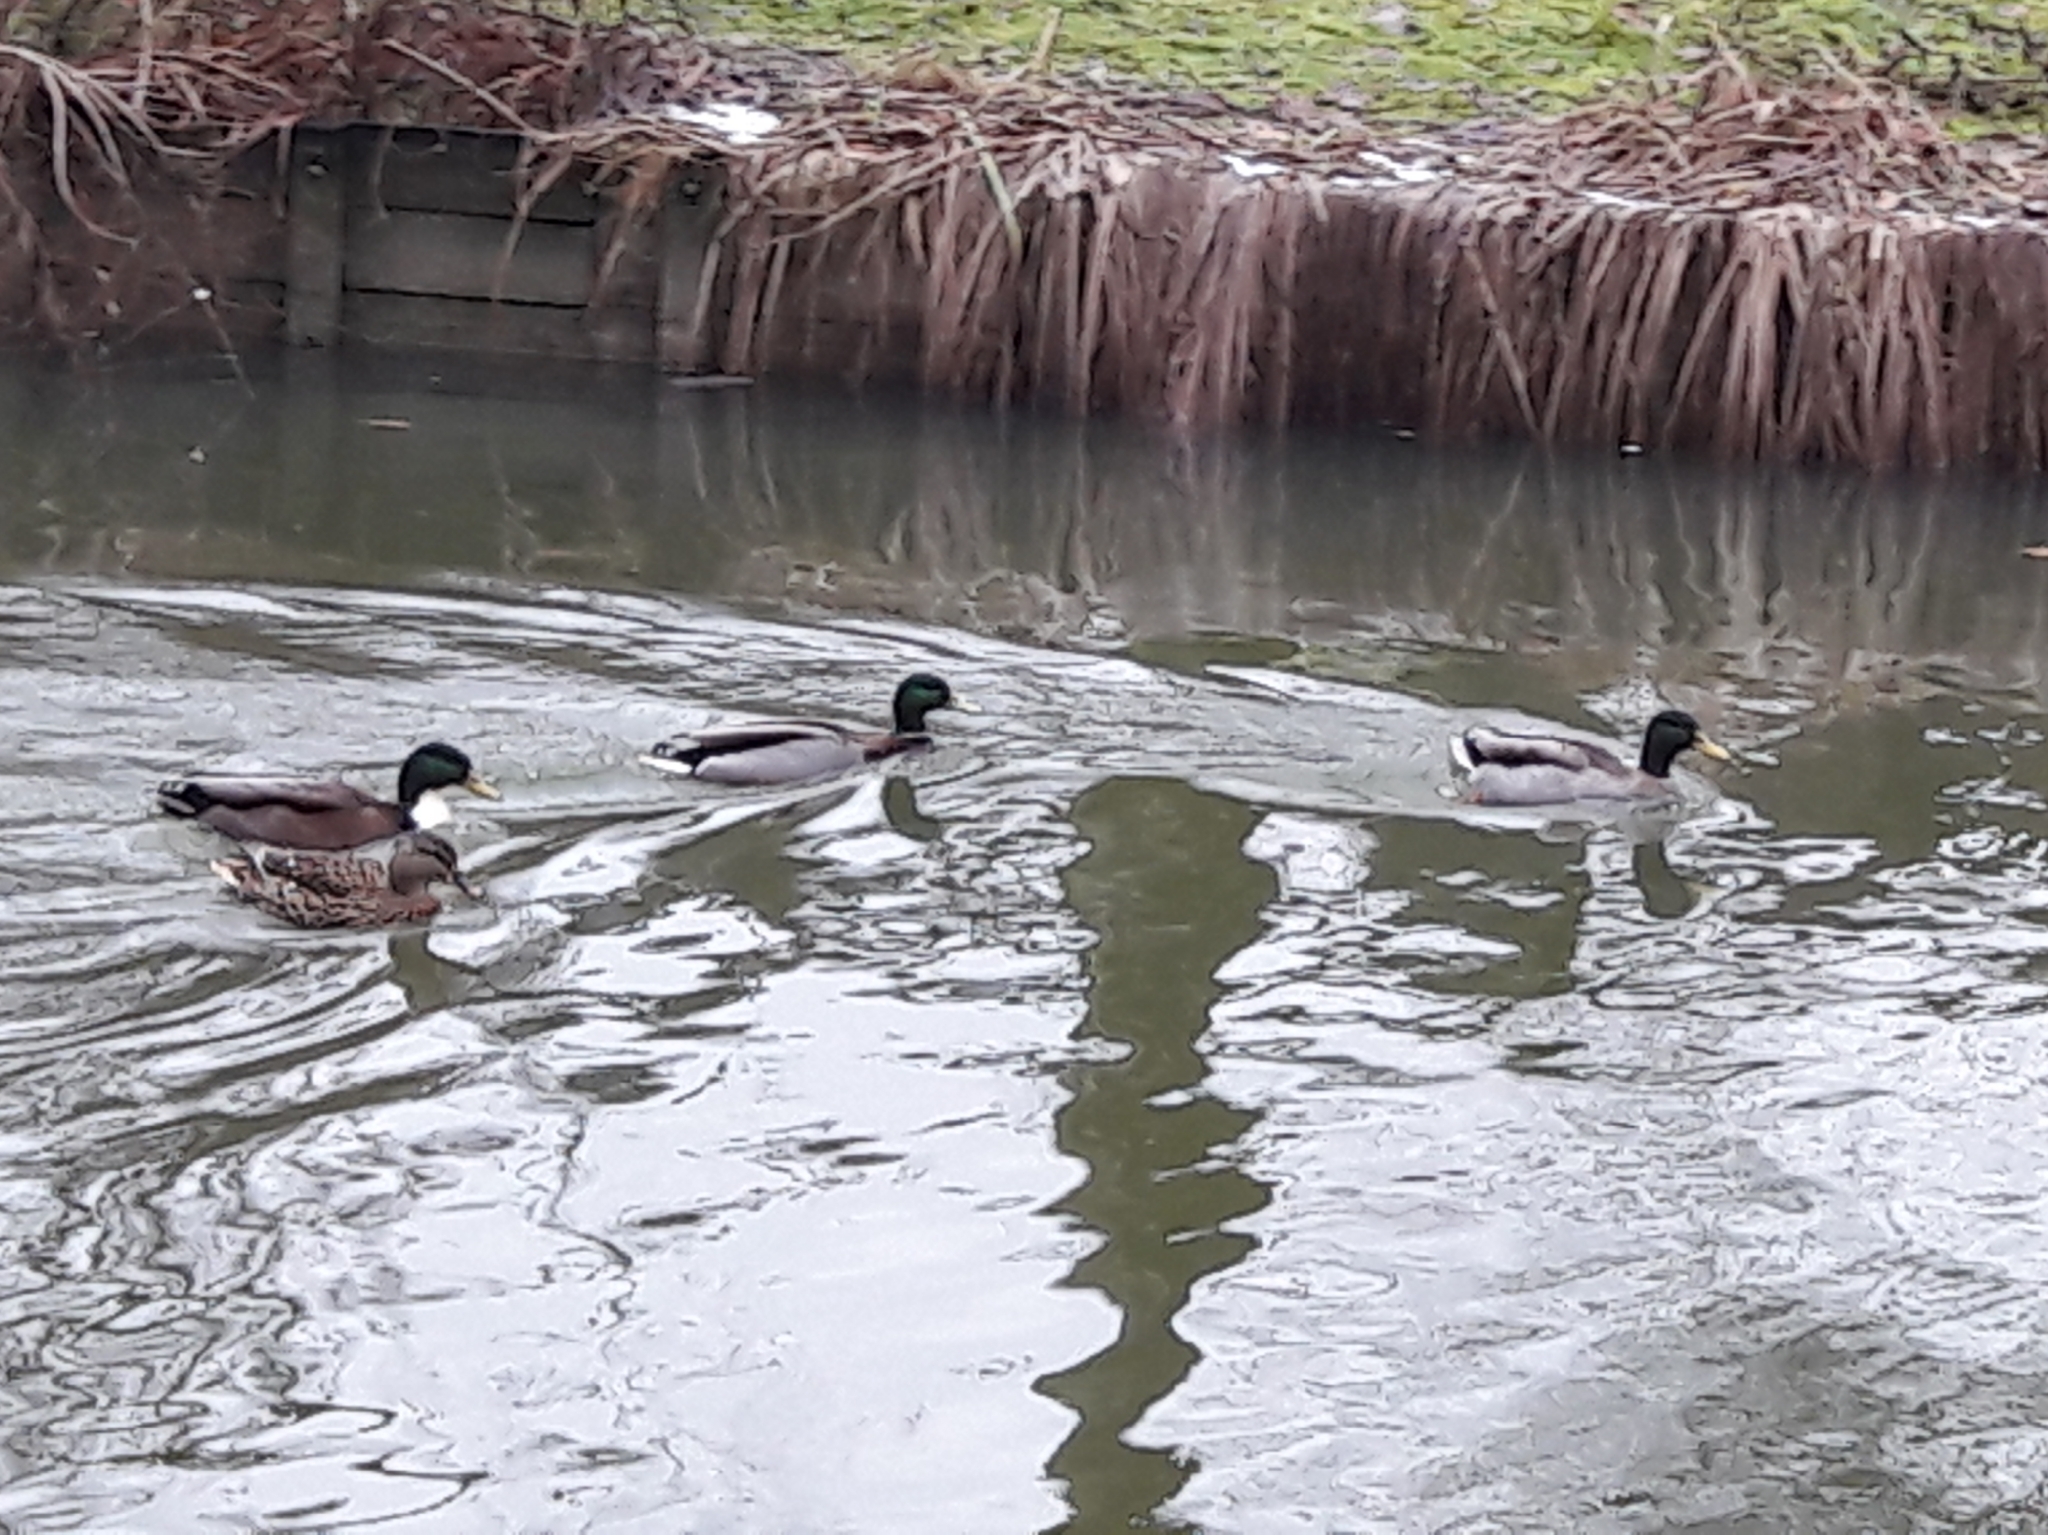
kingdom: Animalia
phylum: Chordata
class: Aves
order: Anseriformes
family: Anatidae
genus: Anas
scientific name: Anas platyrhynchos
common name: Mallard
